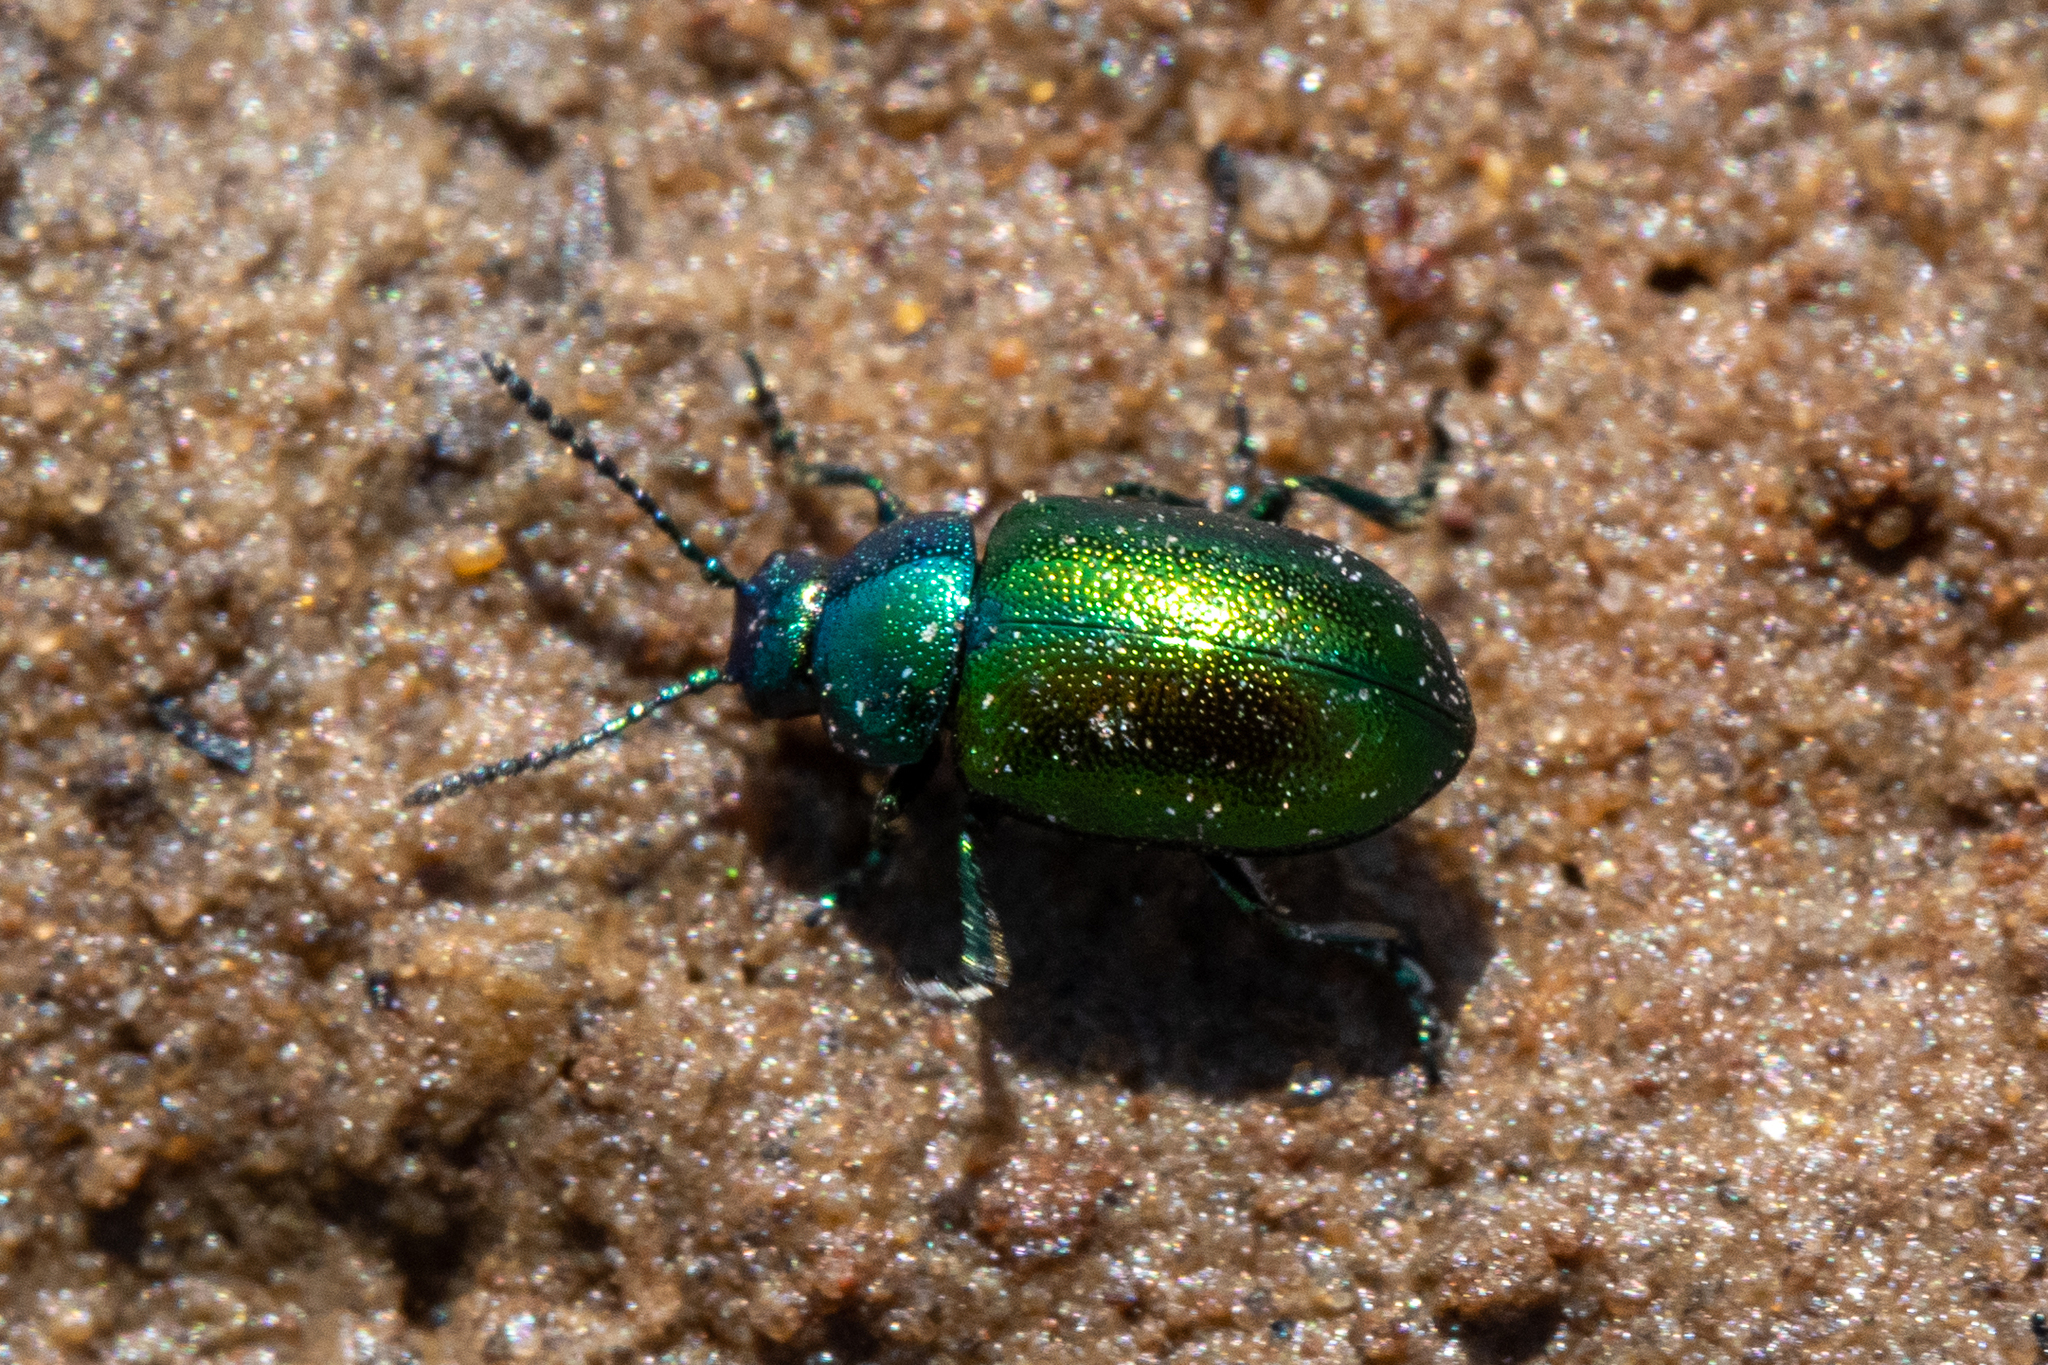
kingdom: Animalia
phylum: Arthropoda
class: Insecta
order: Coleoptera
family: Chrysomelidae
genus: Gastrophysa
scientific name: Gastrophysa viridula
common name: Green dock beetle
